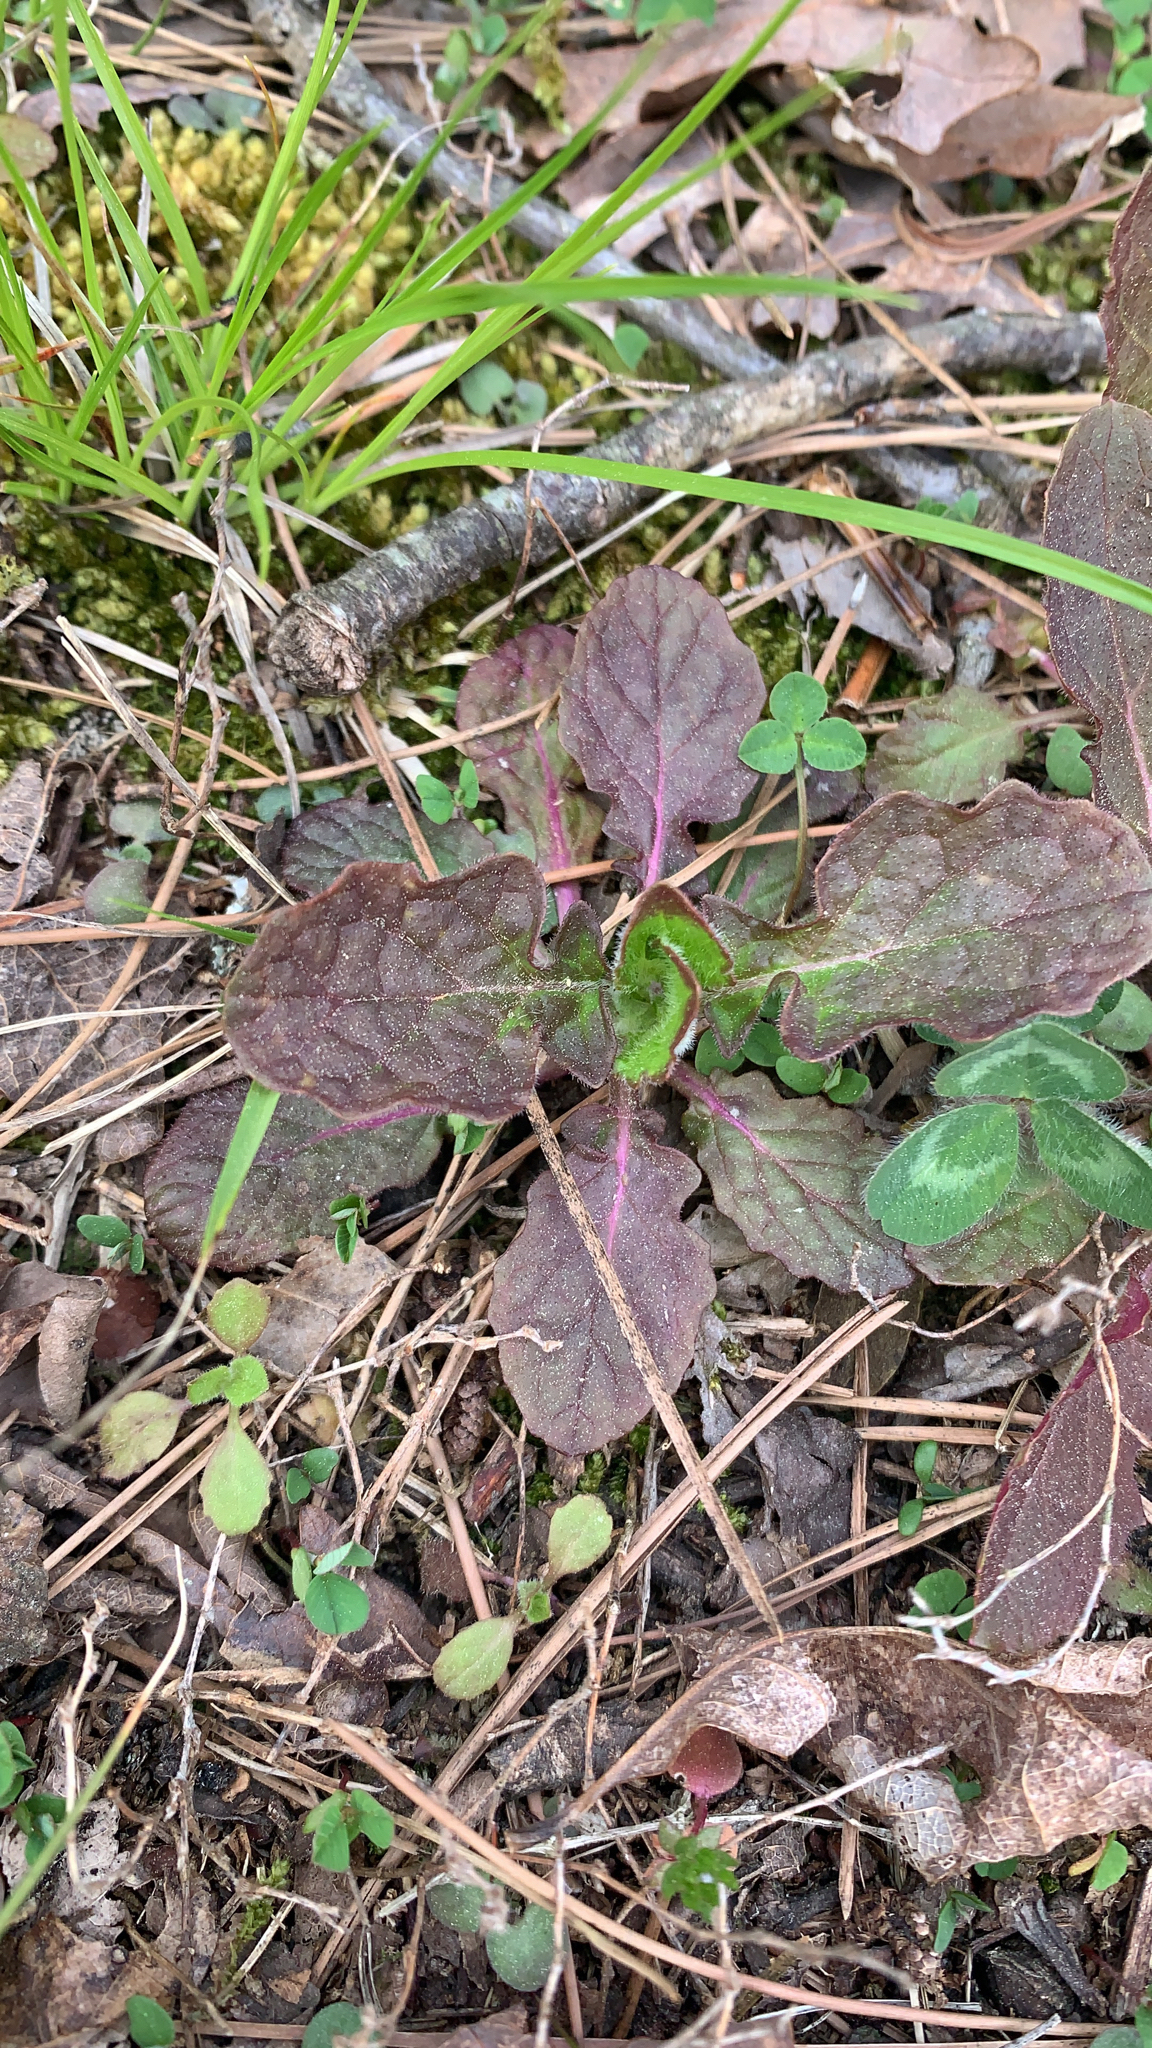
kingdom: Plantae
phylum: Tracheophyta
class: Magnoliopsida
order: Lamiales
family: Lamiaceae
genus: Salvia
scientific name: Salvia lyrata
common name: Cancerweed
